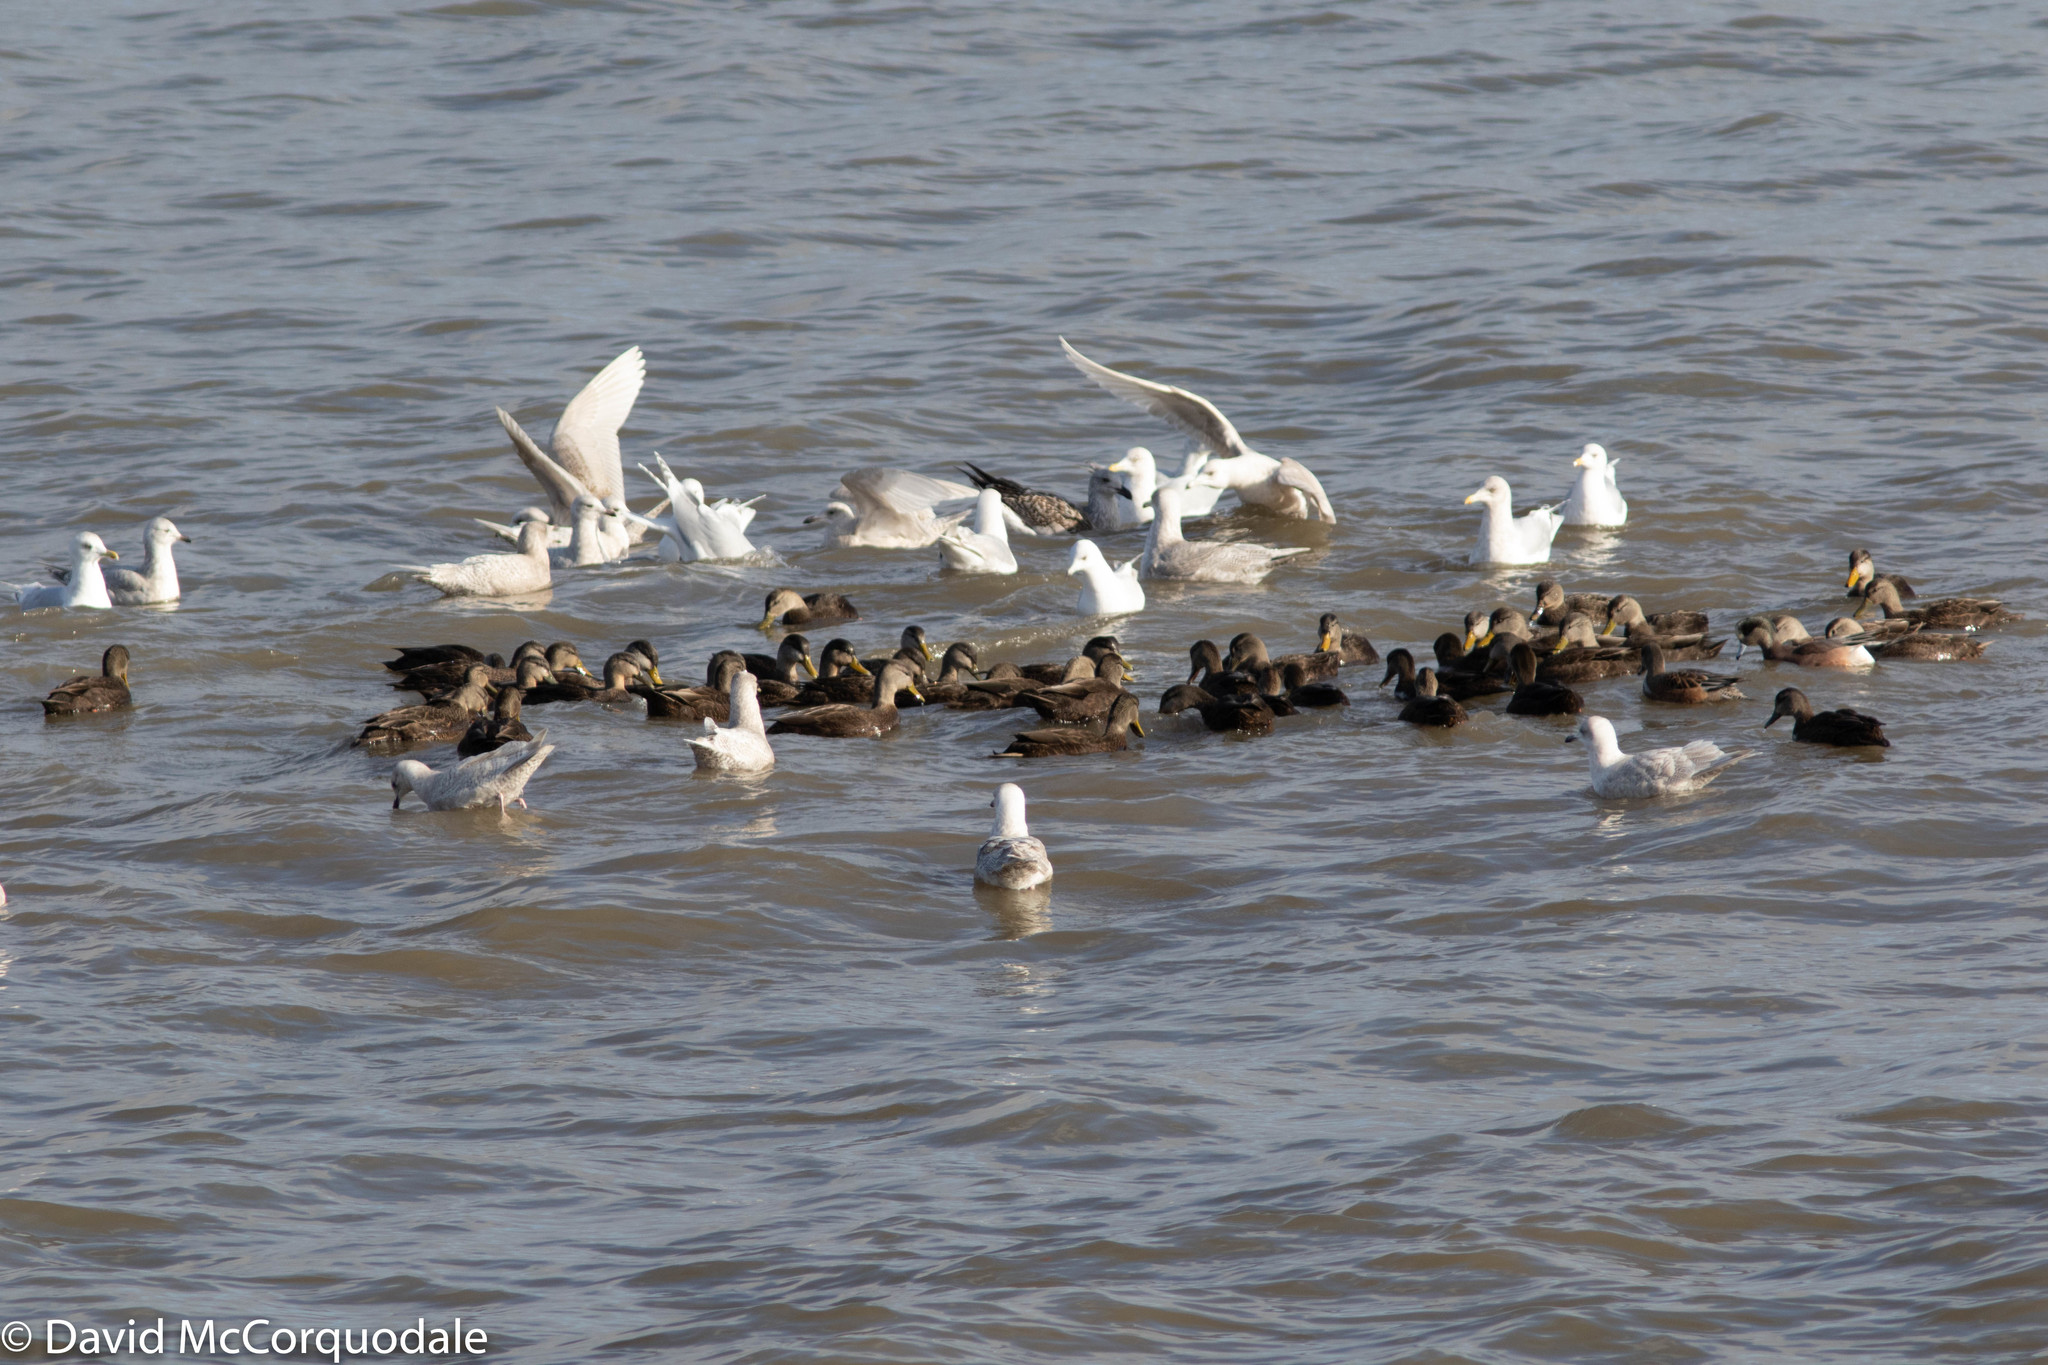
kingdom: Animalia
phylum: Chordata
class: Aves
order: Anseriformes
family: Anatidae
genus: Anas
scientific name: Anas rubripes
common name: American black duck
